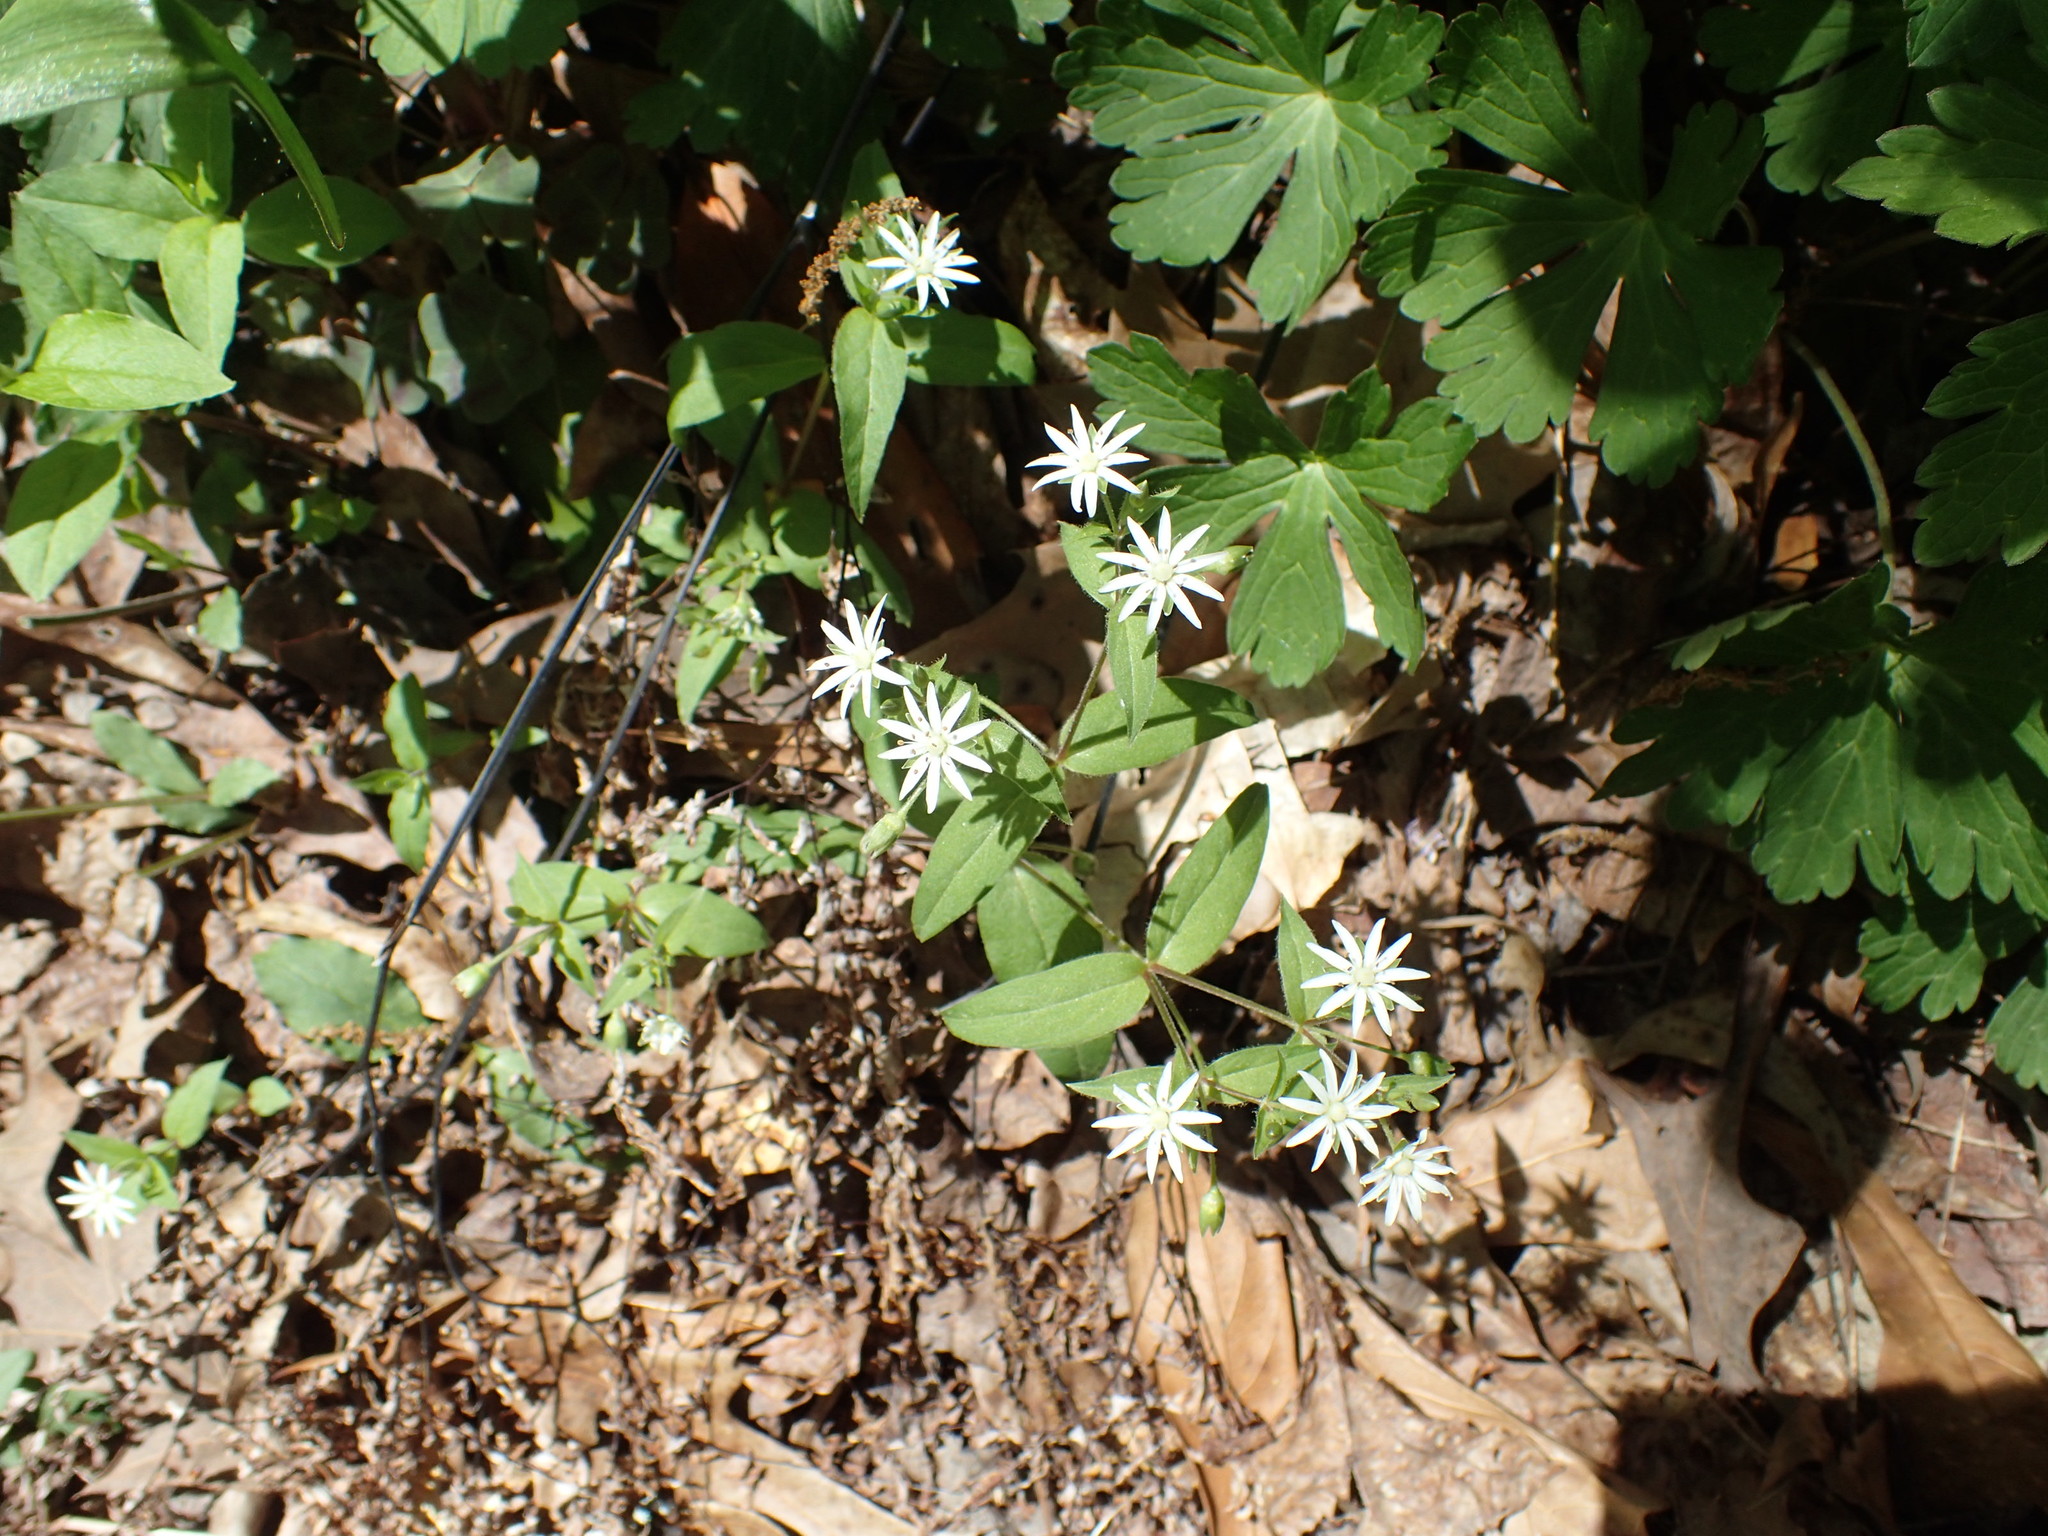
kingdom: Plantae
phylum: Tracheophyta
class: Magnoliopsida
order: Caryophyllales
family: Caryophyllaceae
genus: Stellaria
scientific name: Stellaria pubera
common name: Star chickweed
